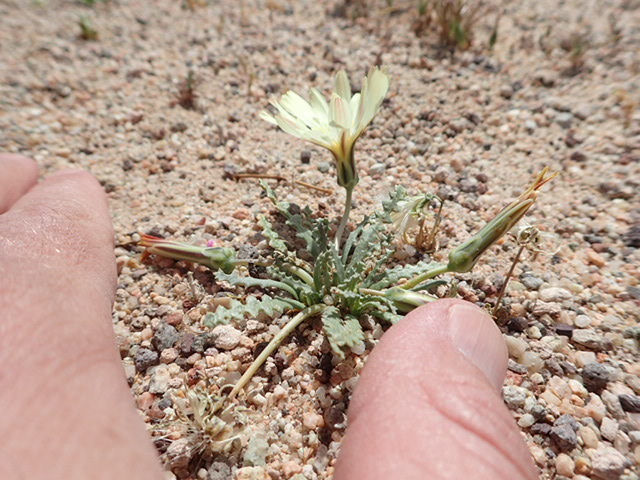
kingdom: Plantae
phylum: Tracheophyta
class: Magnoliopsida
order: Asterales
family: Asteraceae
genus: Anisocoma
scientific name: Anisocoma acaulis
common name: Scalebud
